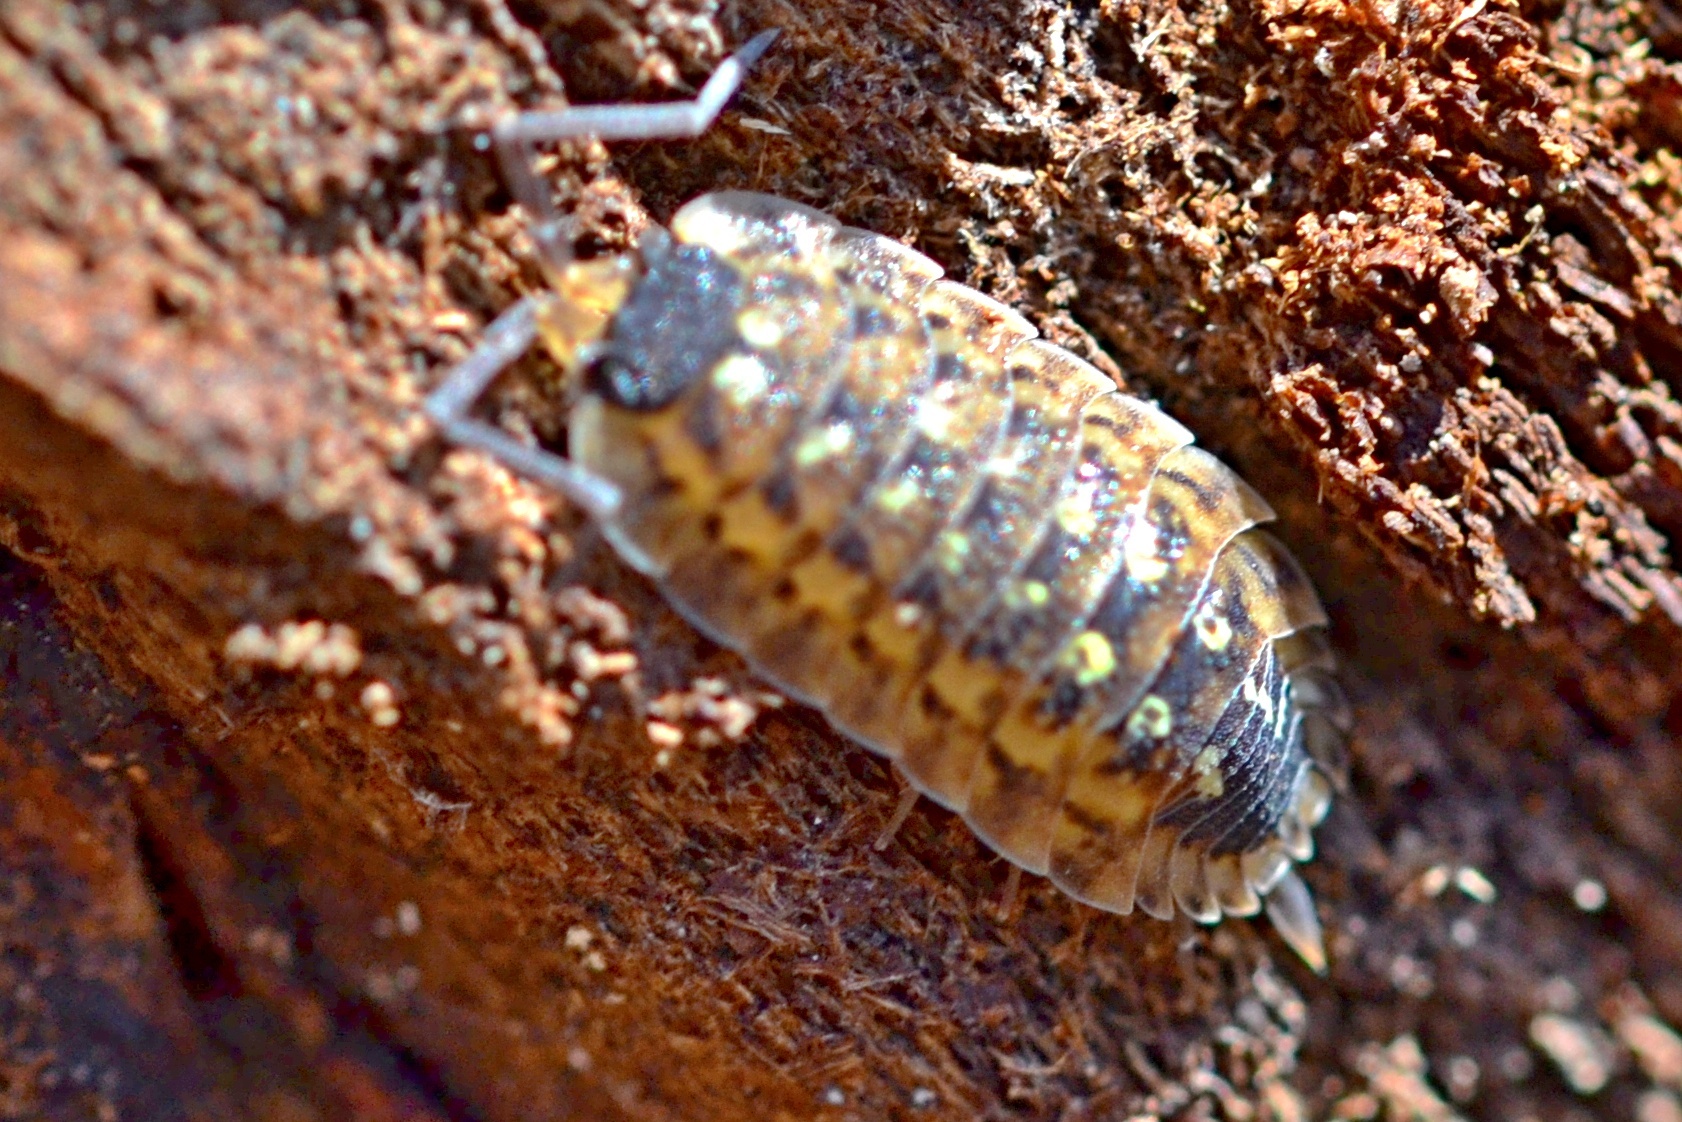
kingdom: Animalia
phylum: Arthropoda
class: Malacostraca
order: Isopoda
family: Porcellionidae
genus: Porcellio
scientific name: Porcellio spinicornis
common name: Painted woodlouse
